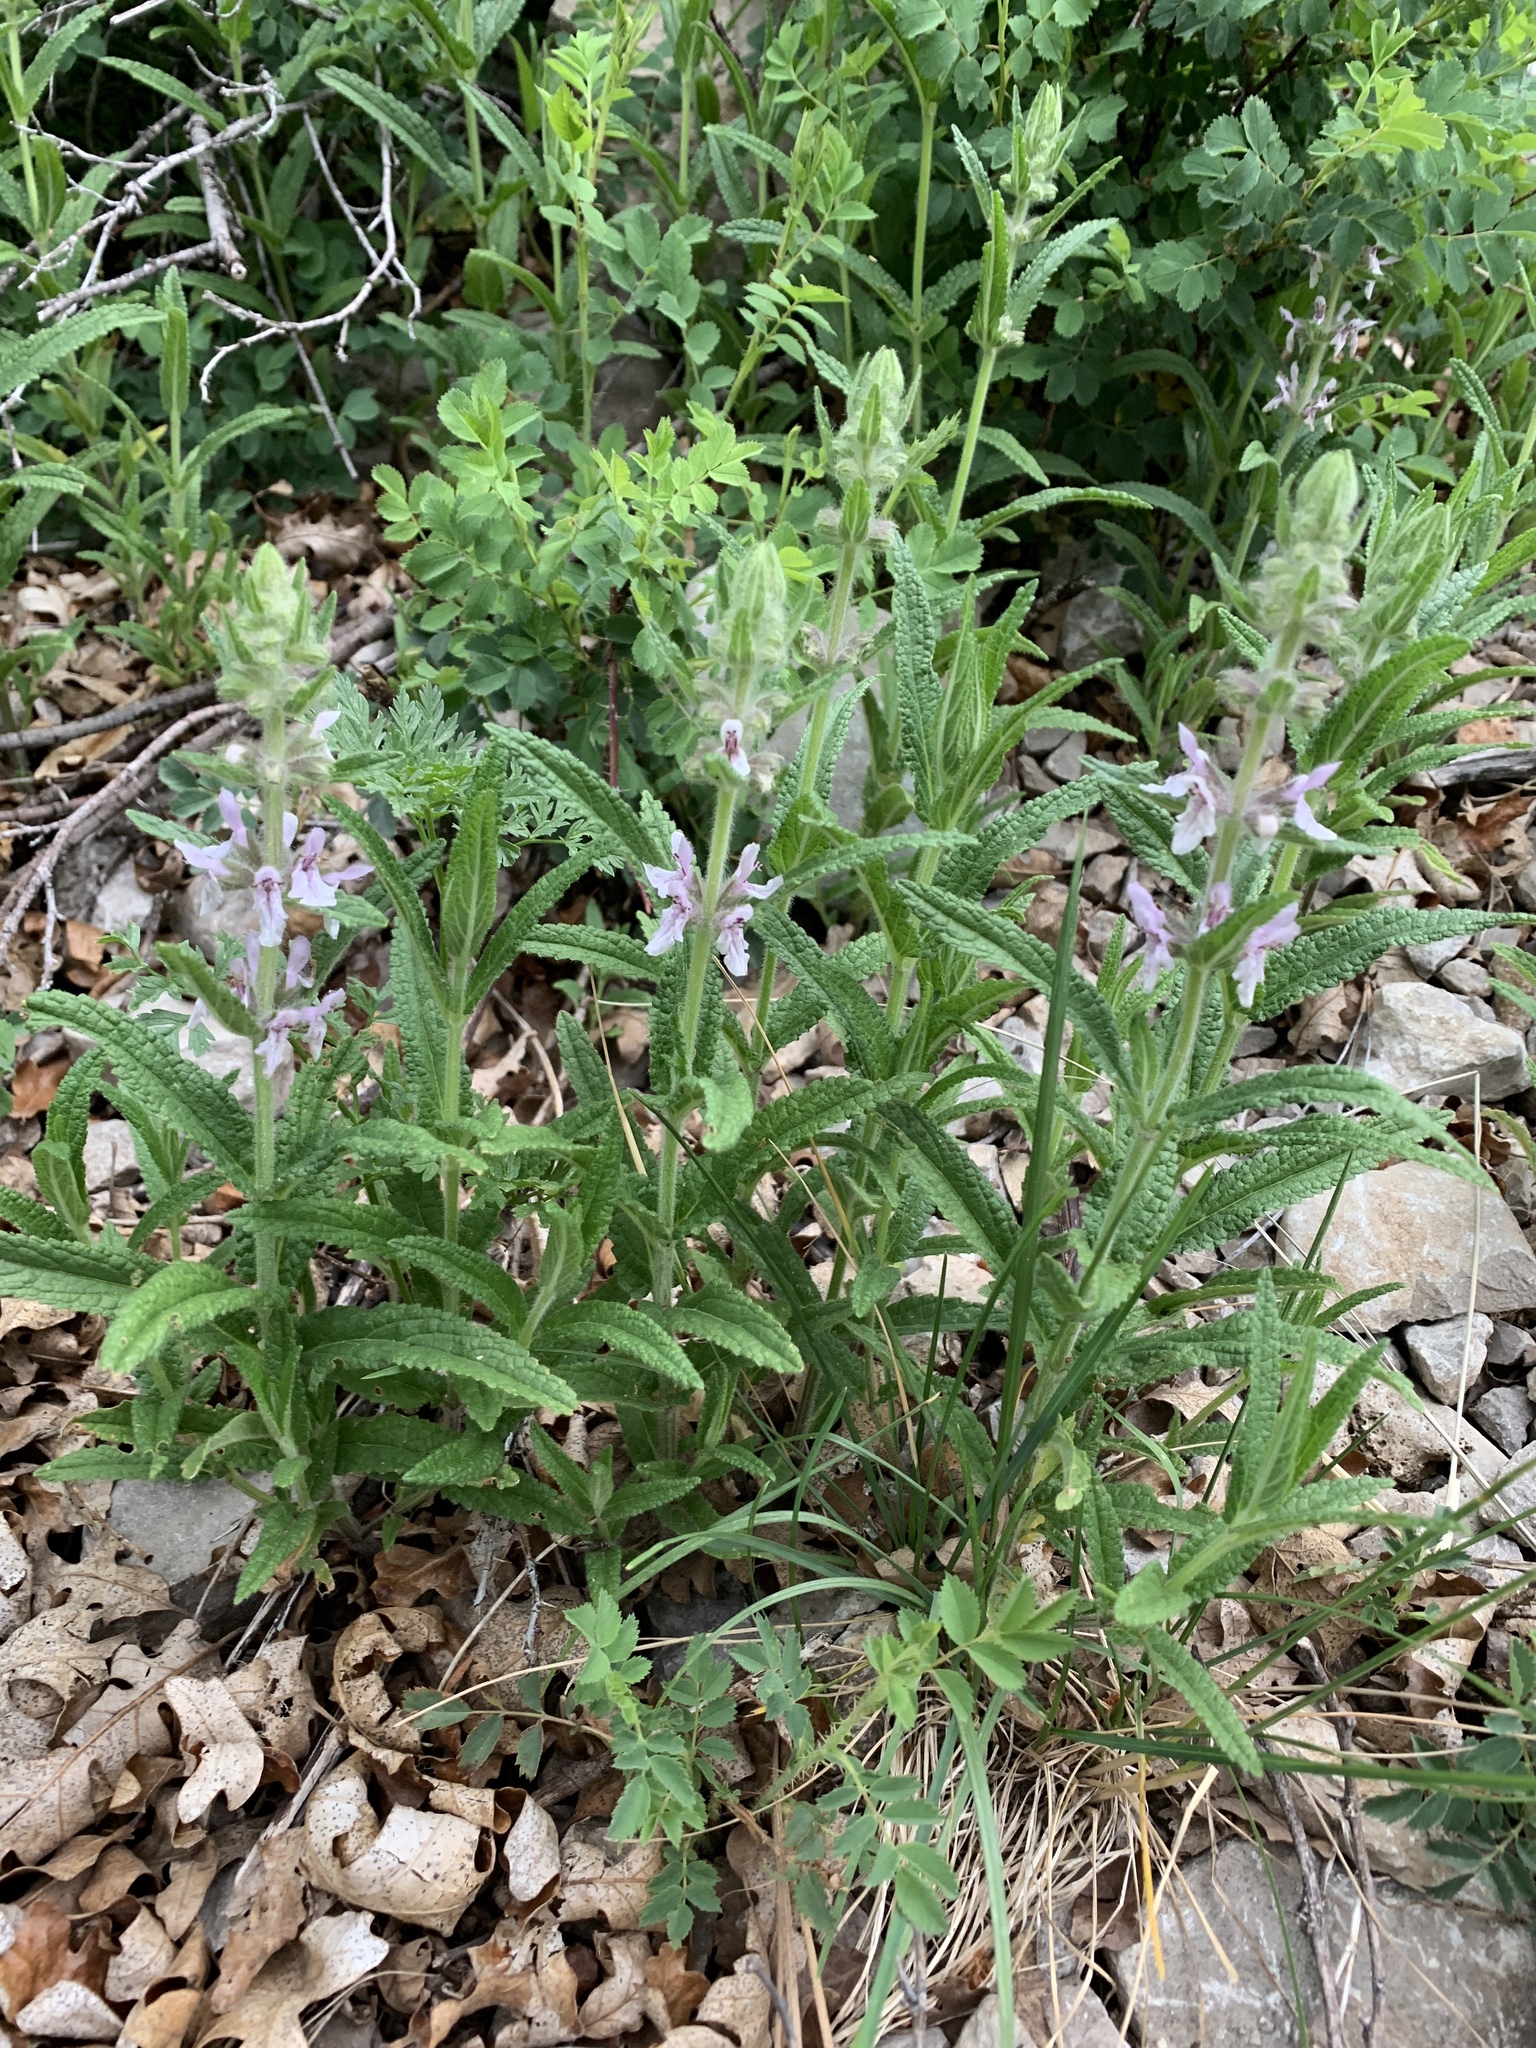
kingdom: Plantae
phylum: Tracheophyta
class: Magnoliopsida
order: Lamiales
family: Lamiaceae
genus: Stachys
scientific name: Stachys pilosa
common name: Hairy hedge-nettle
